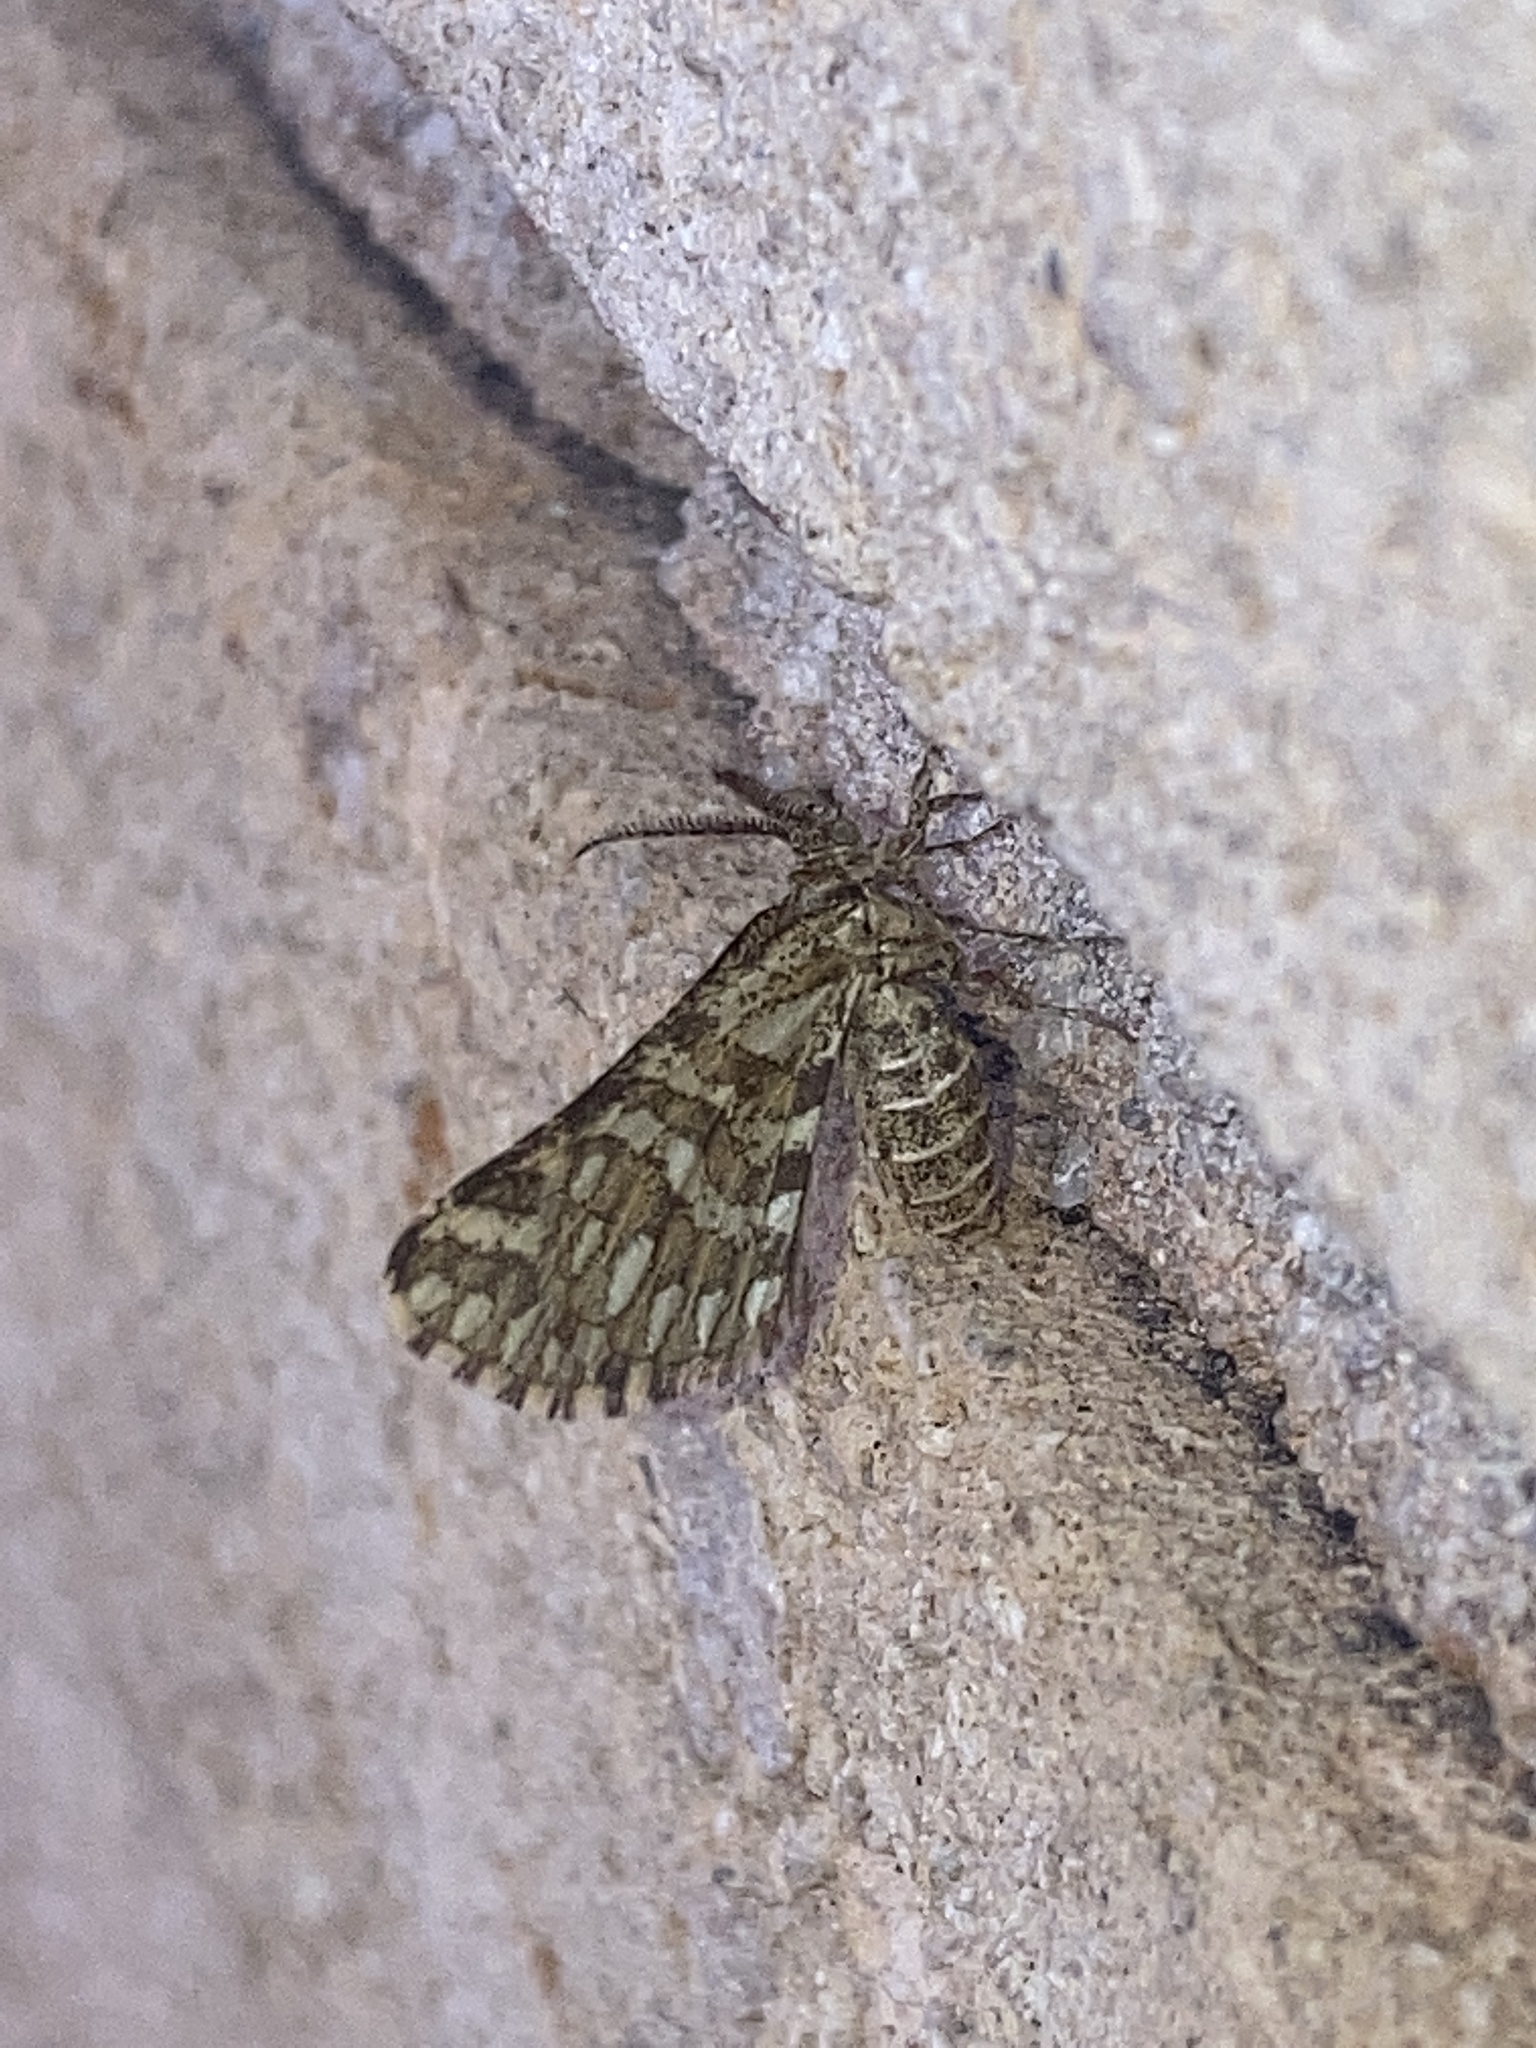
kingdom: Animalia
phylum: Arthropoda
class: Insecta
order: Lepidoptera
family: Geometridae
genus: Narraga
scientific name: Narraga fimetaria
